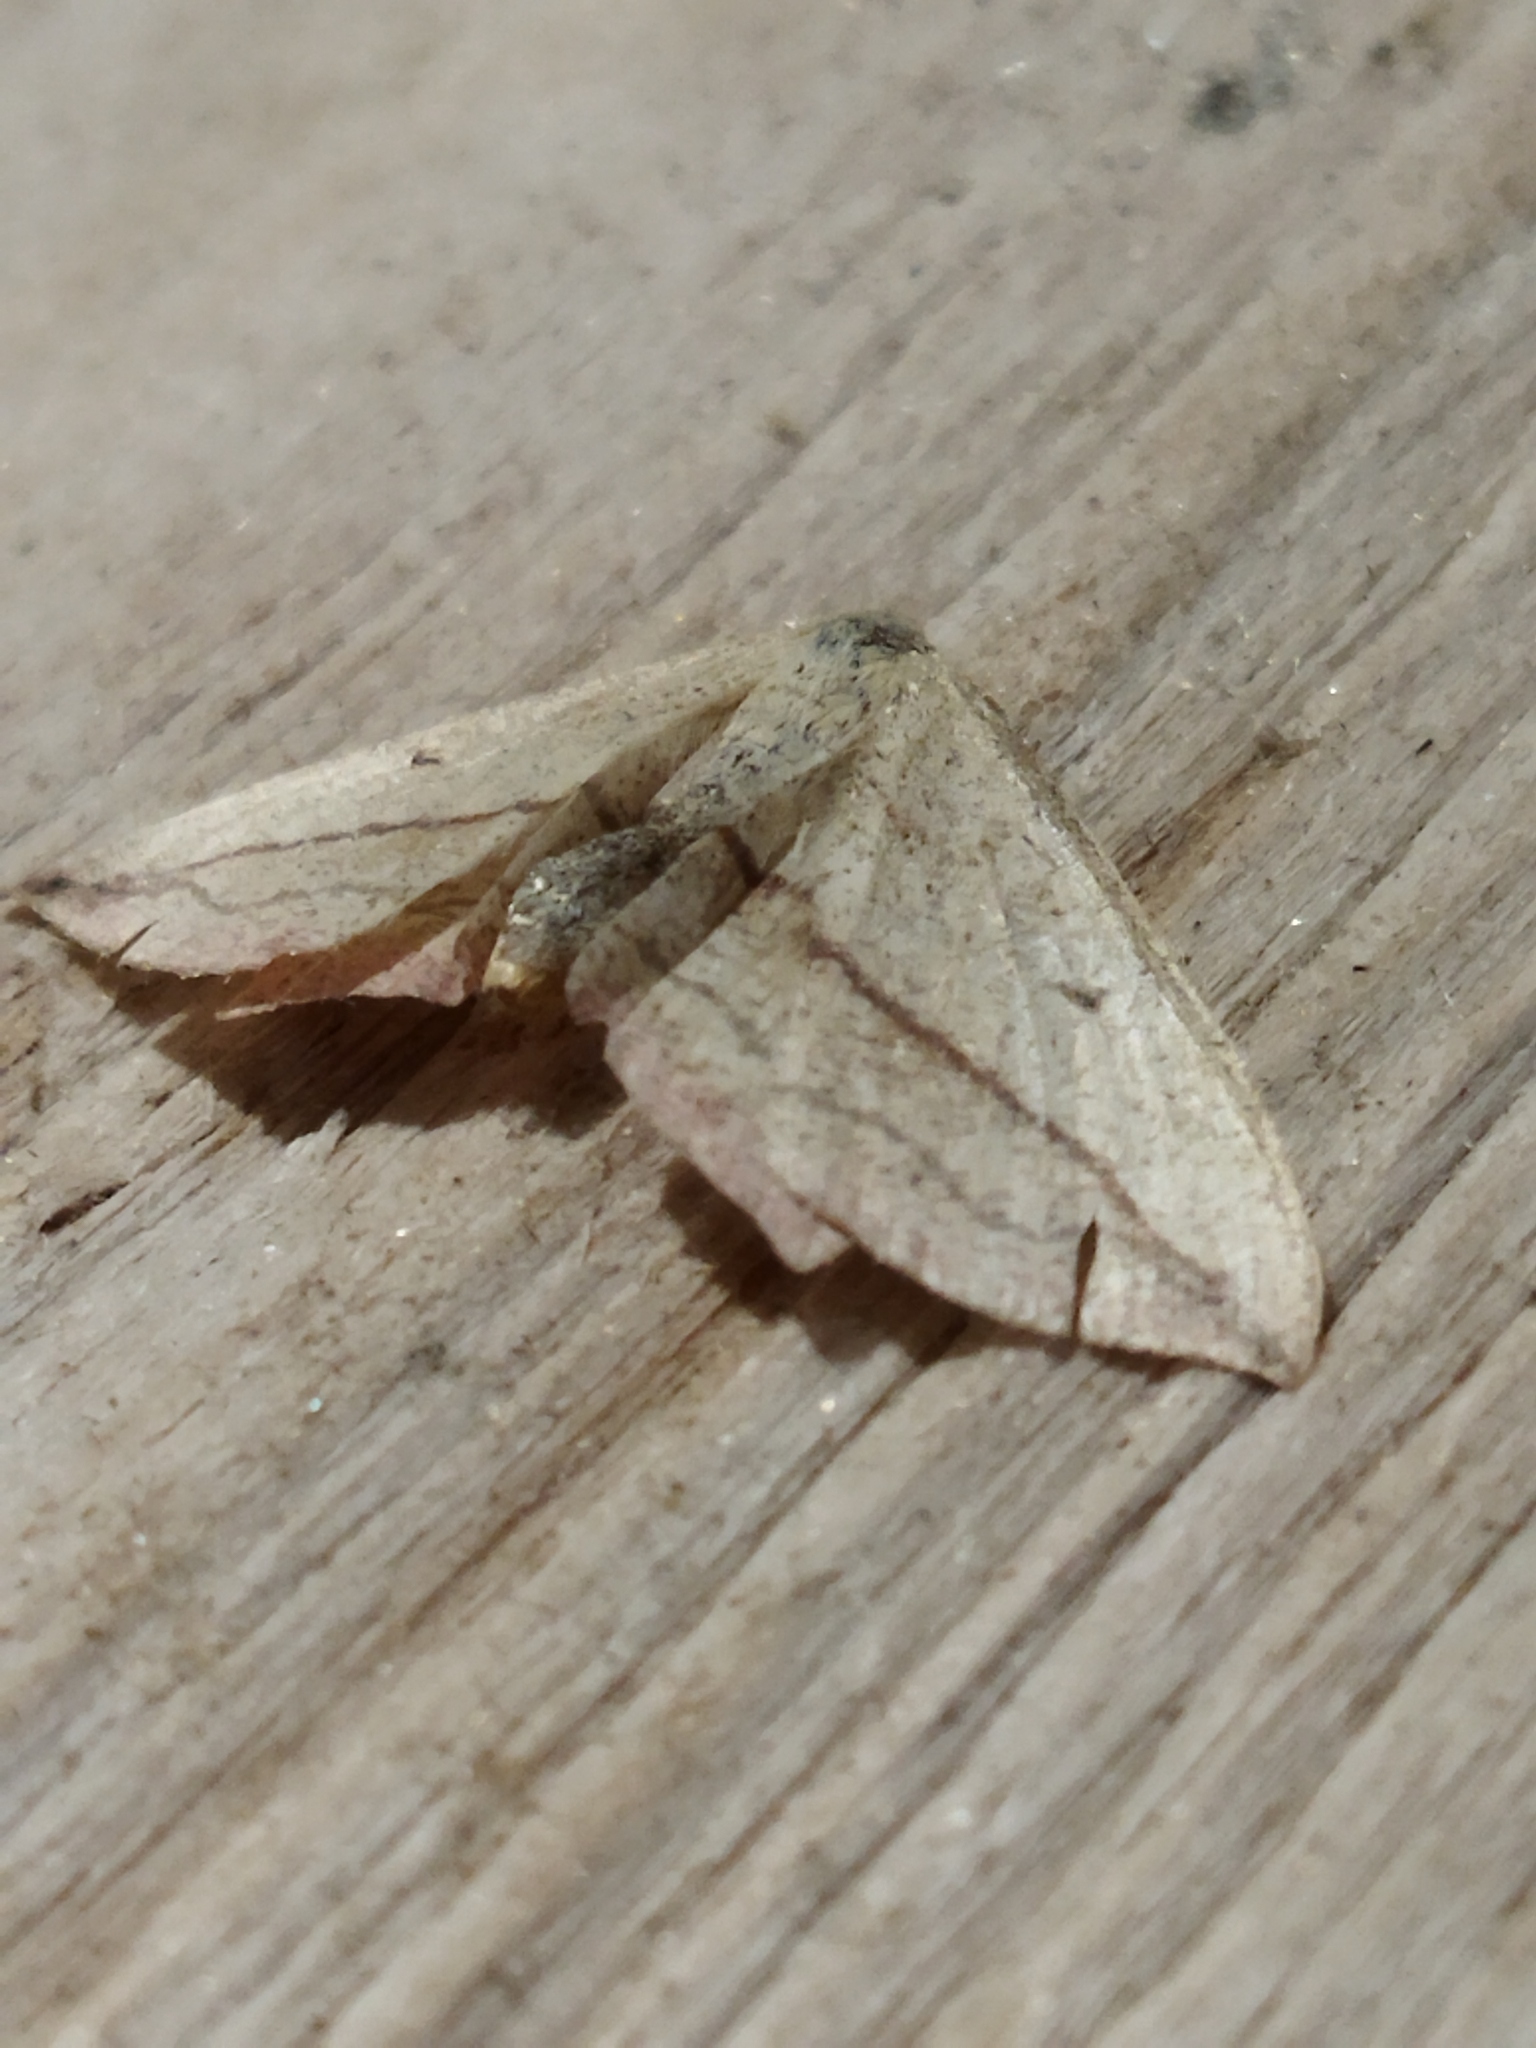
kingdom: Animalia
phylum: Arthropoda
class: Insecta
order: Lepidoptera
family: Geometridae
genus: Timandra
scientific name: Timandra comae
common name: Blood-vein
